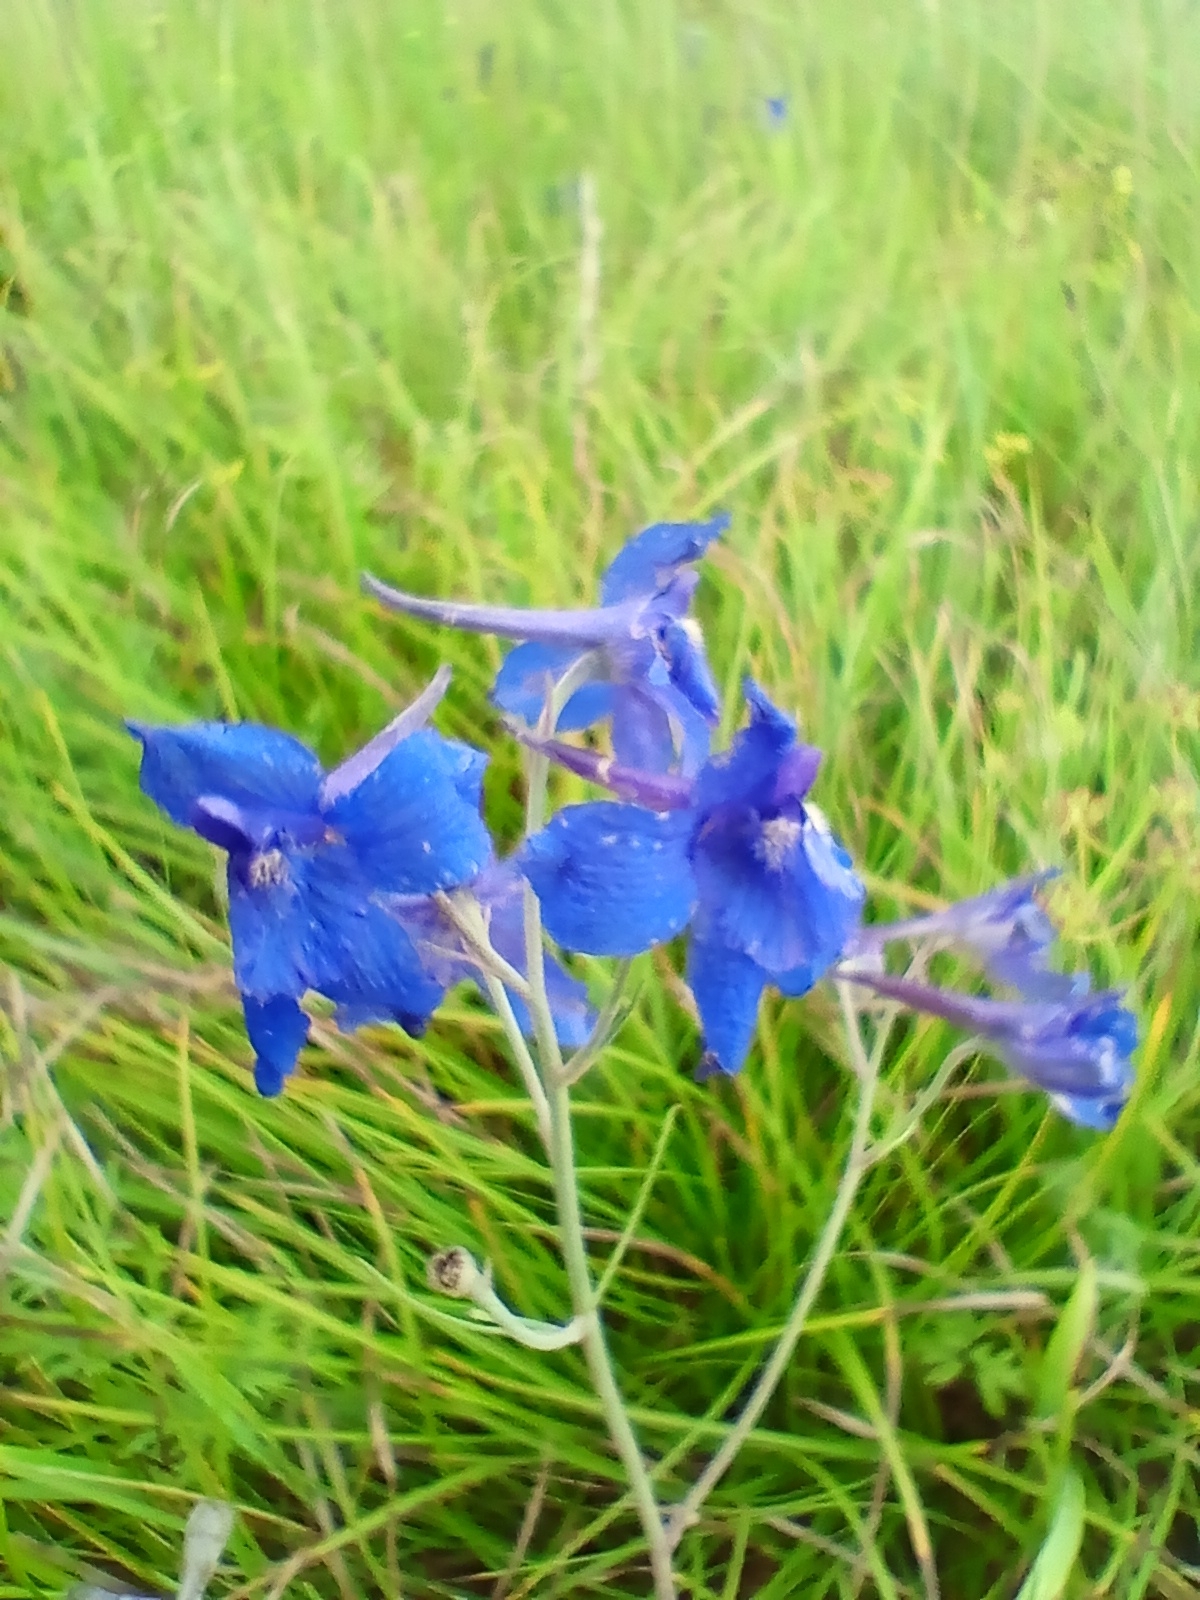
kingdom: Plantae
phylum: Tracheophyta
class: Magnoliopsida
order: Gentianales
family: Gentianaceae
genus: Gentiana
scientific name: Gentiana decumbens
